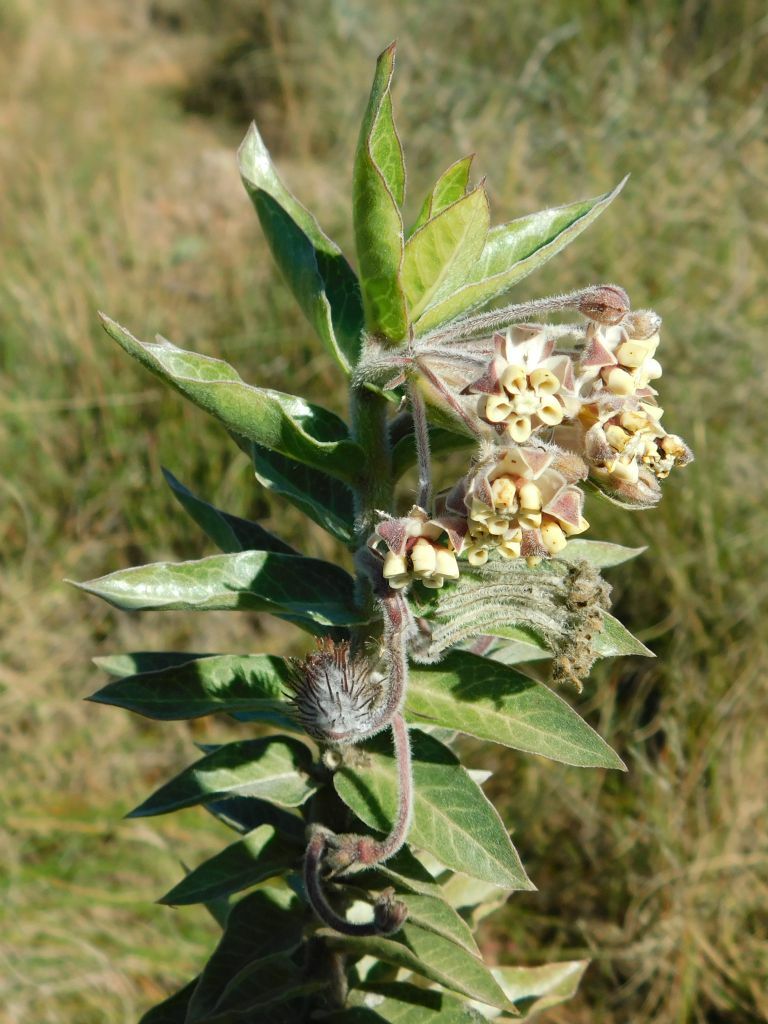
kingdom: Plantae
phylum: Tracheophyta
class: Magnoliopsida
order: Gentianales
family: Apocynaceae
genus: Gomphocarpus
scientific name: Gomphocarpus cancellatus
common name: Wild cotton
